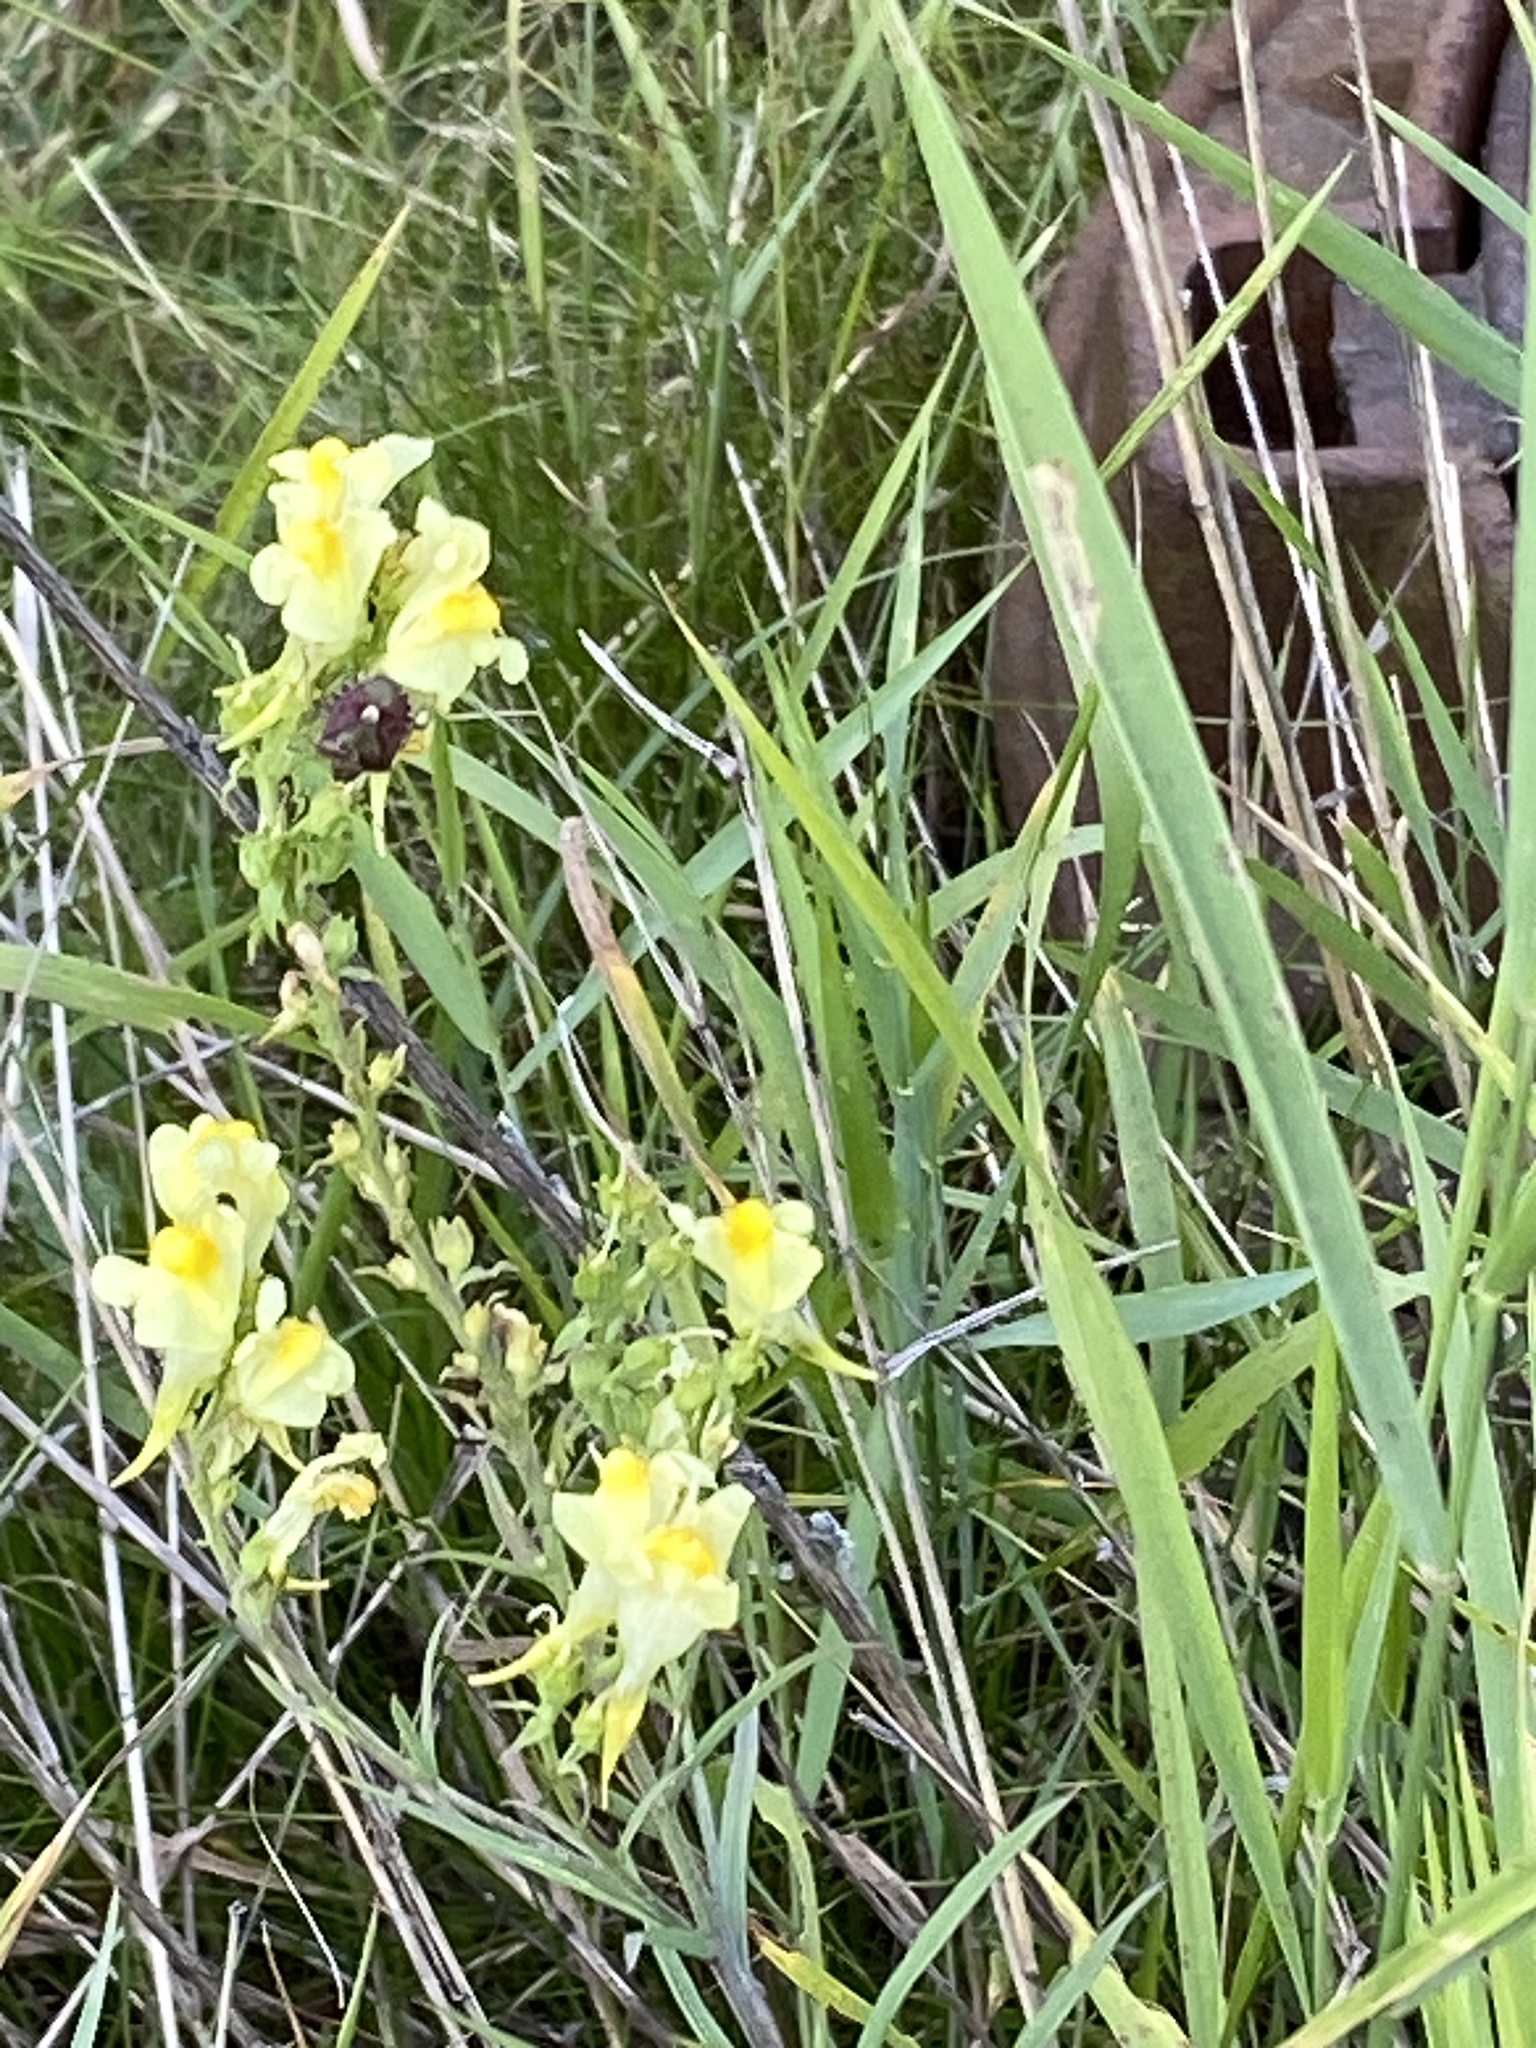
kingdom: Plantae
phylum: Tracheophyta
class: Magnoliopsida
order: Lamiales
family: Plantaginaceae
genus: Linaria
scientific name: Linaria vulgaris
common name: Butter and eggs
